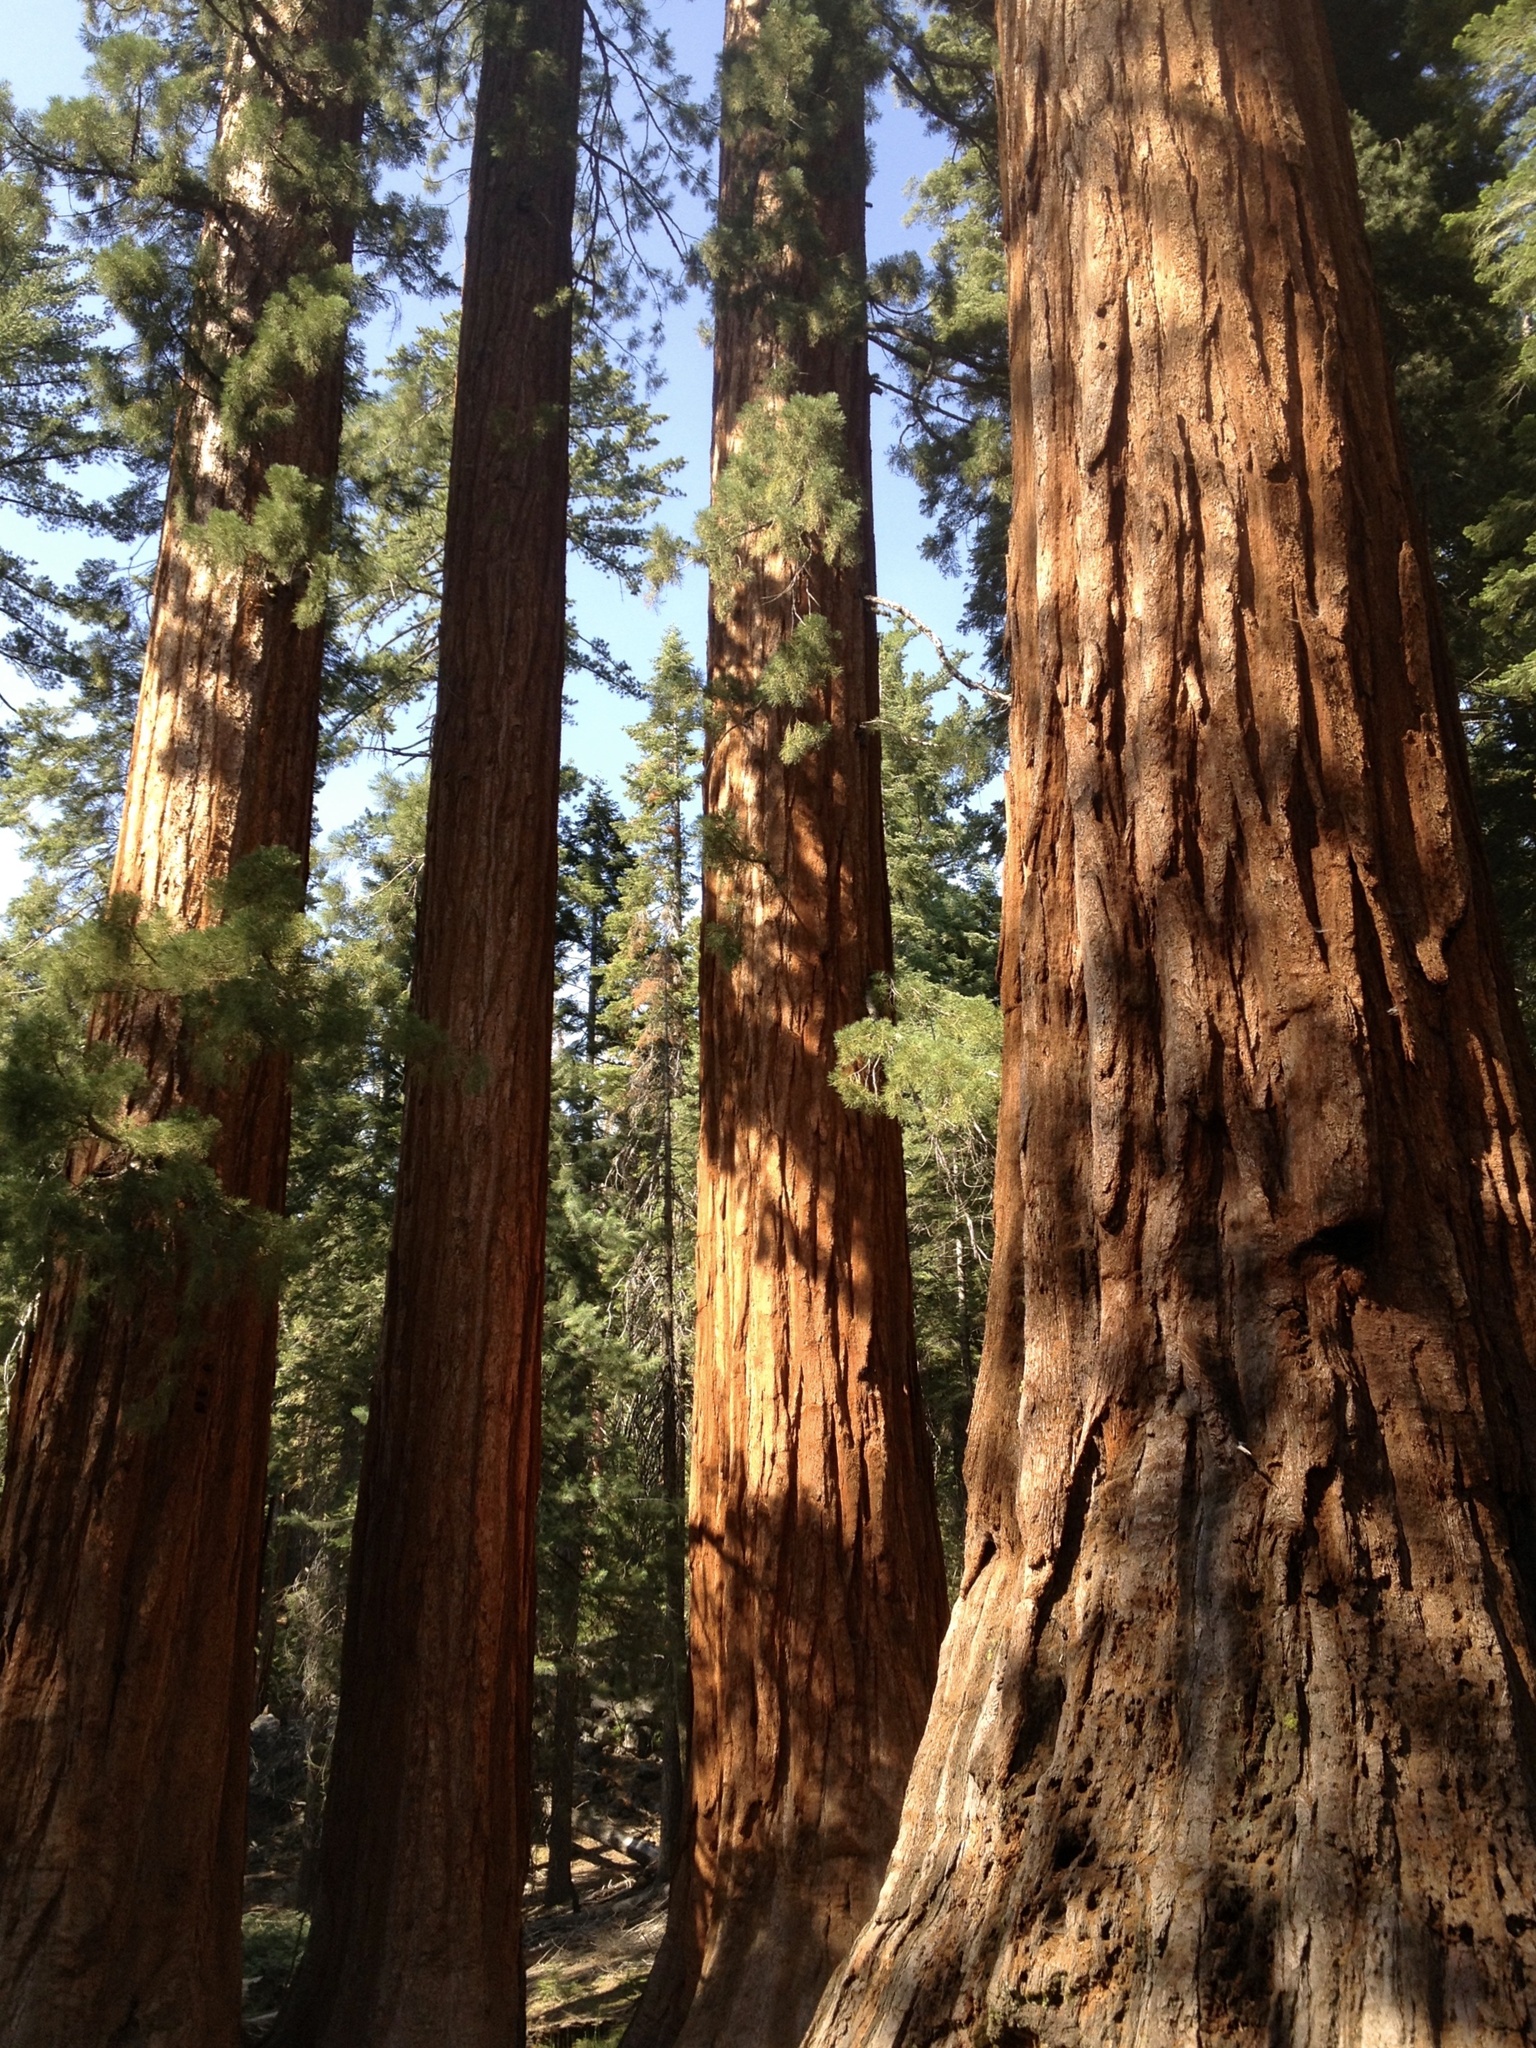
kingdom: Plantae
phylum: Tracheophyta
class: Pinopsida
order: Pinales
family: Cupressaceae
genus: Sequoiadendron
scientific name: Sequoiadendron giganteum
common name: Wellingtonia
